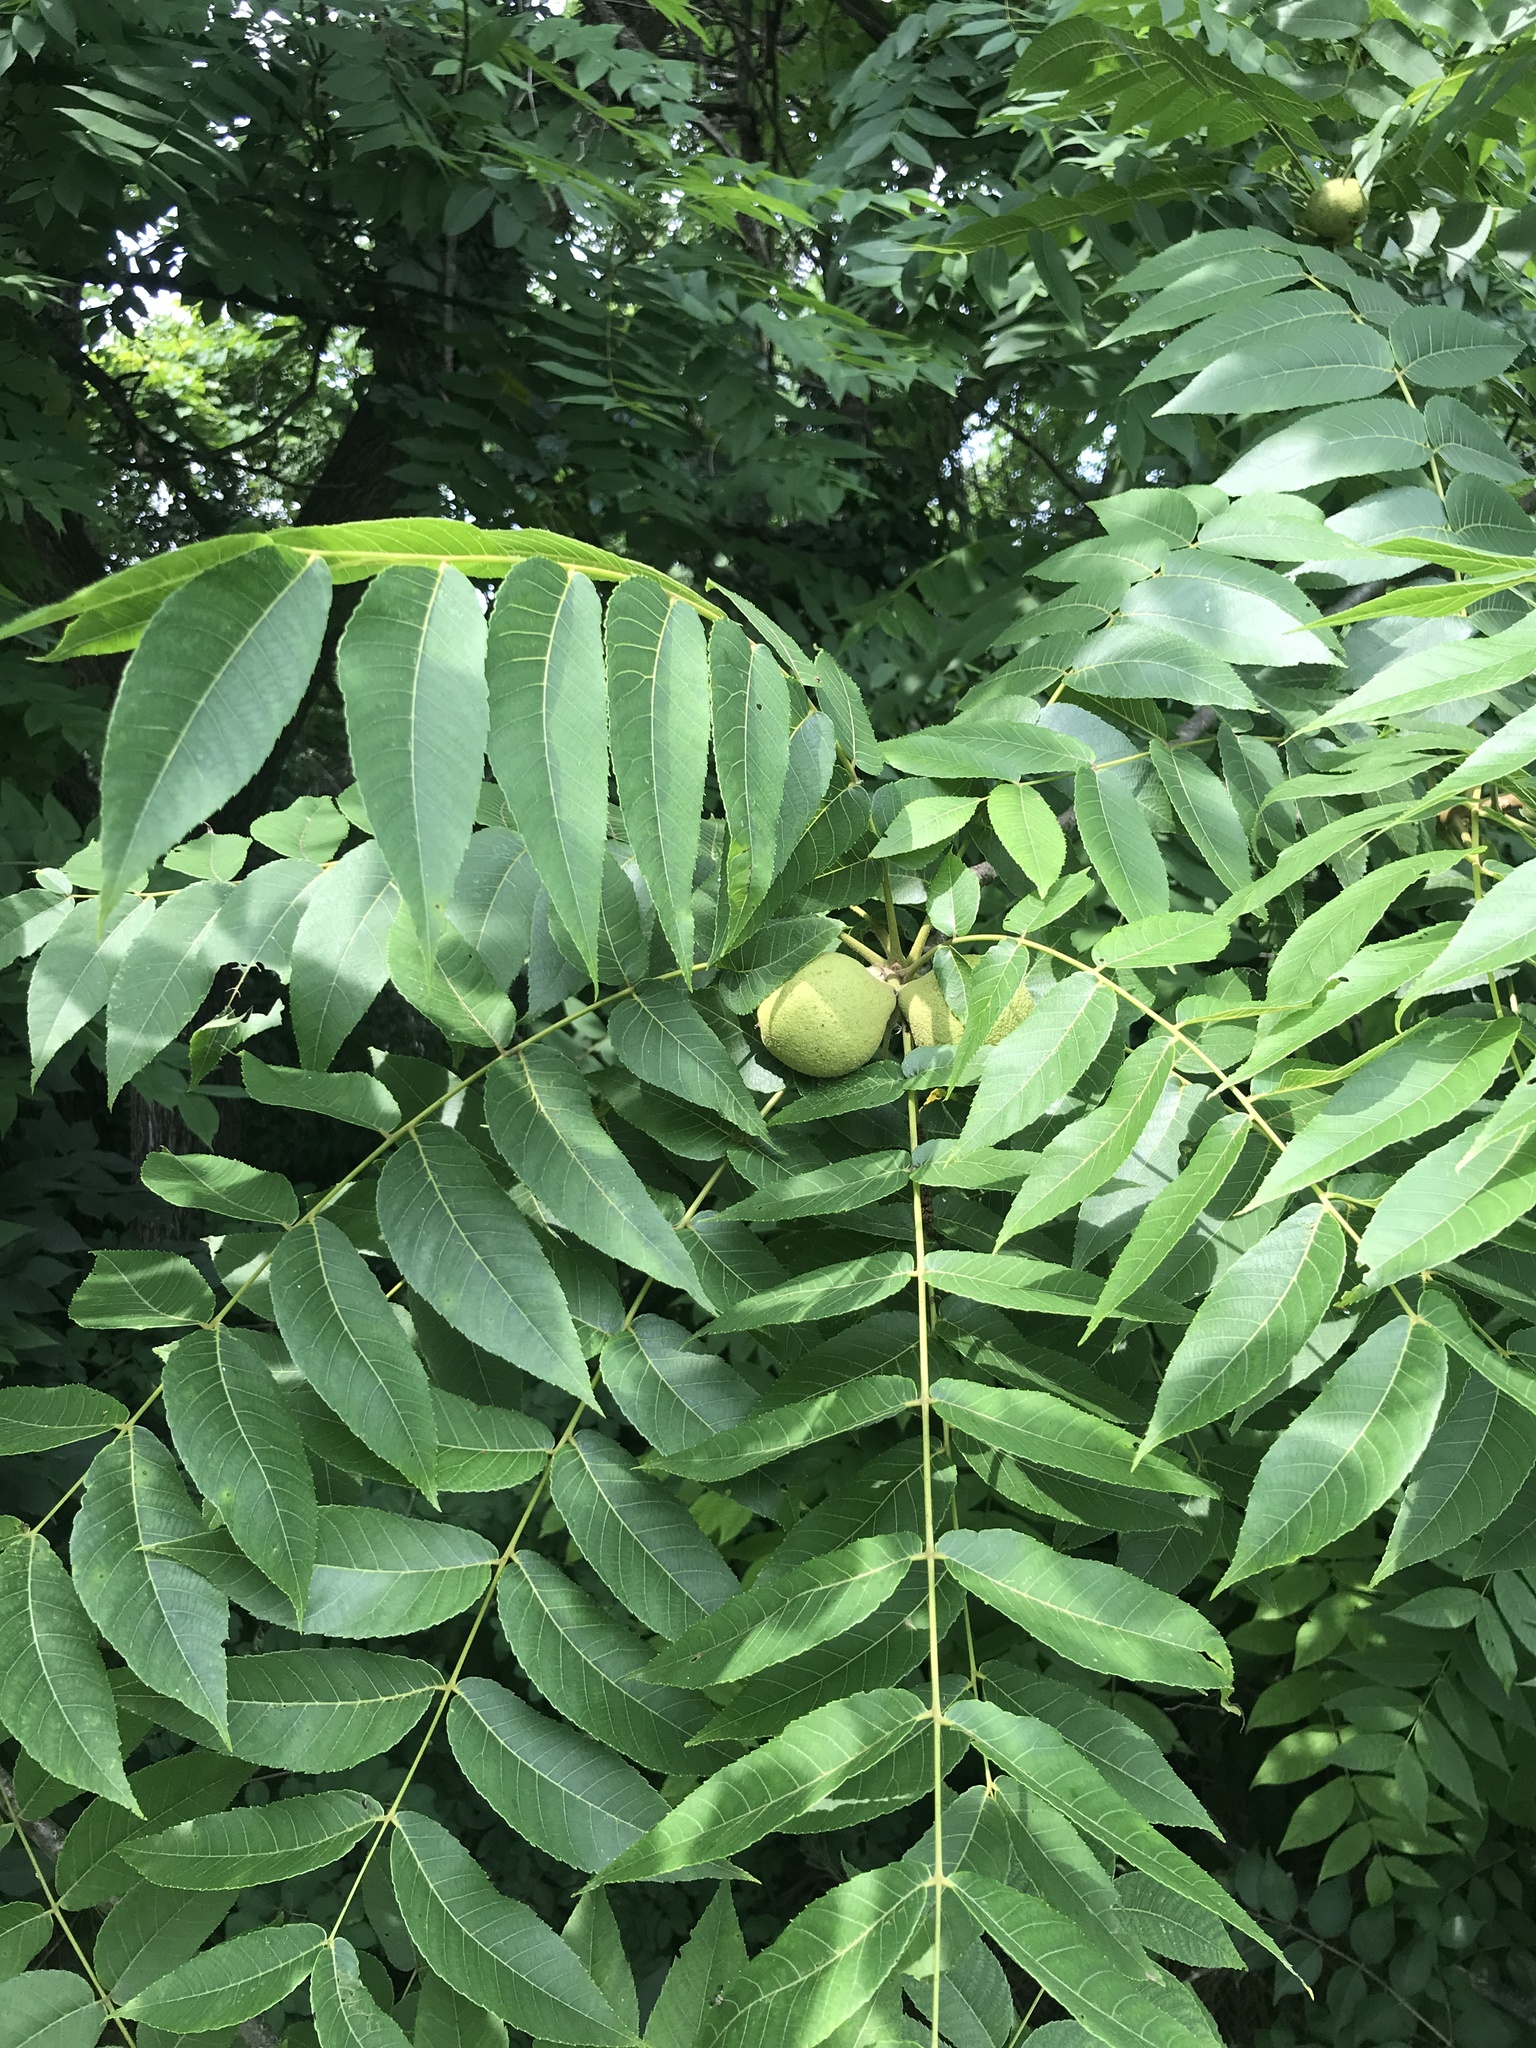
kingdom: Plantae
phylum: Tracheophyta
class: Magnoliopsida
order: Fagales
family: Juglandaceae
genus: Juglans
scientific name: Juglans nigra
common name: Black walnut
